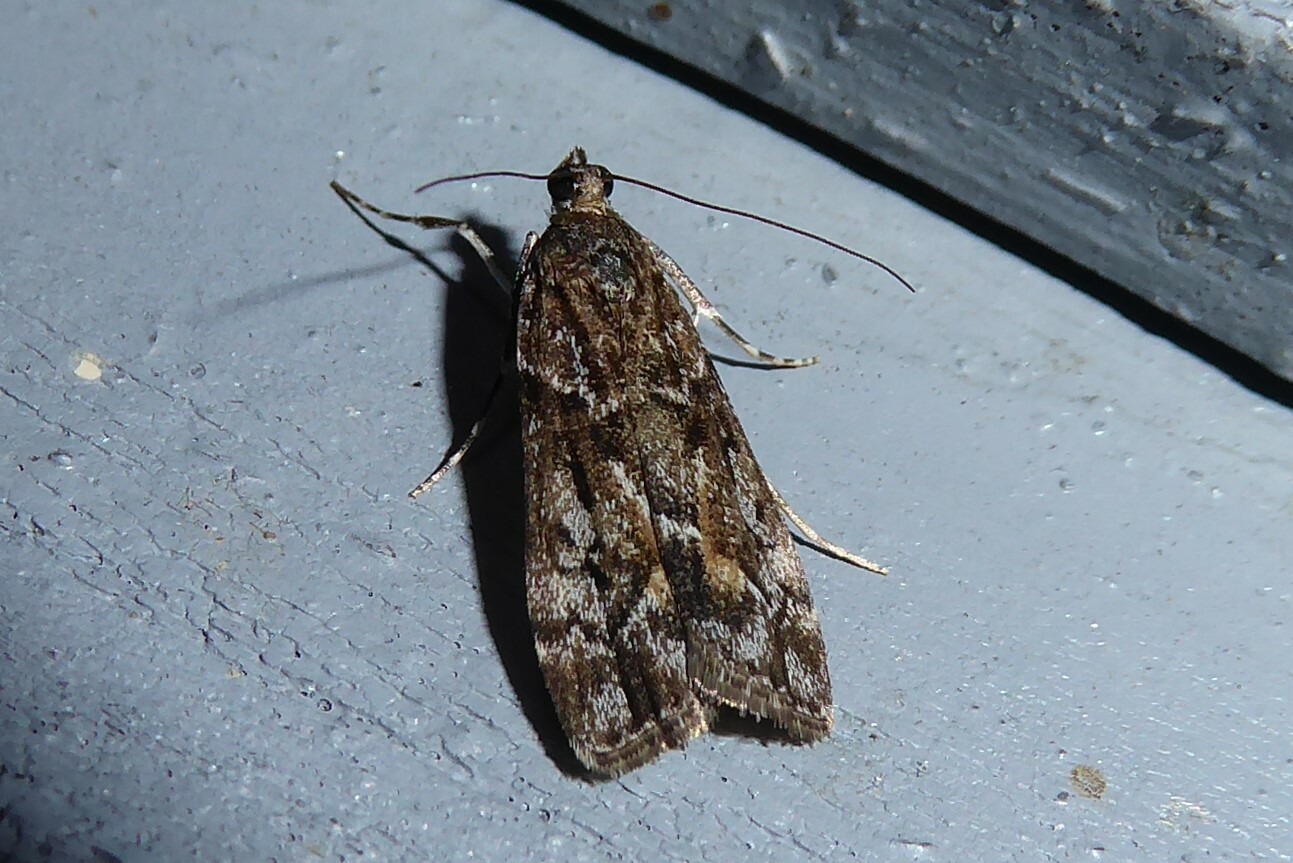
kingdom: Animalia
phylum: Arthropoda
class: Insecta
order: Lepidoptera
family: Crambidae
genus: Eudonia
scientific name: Eudonia submarginalis
